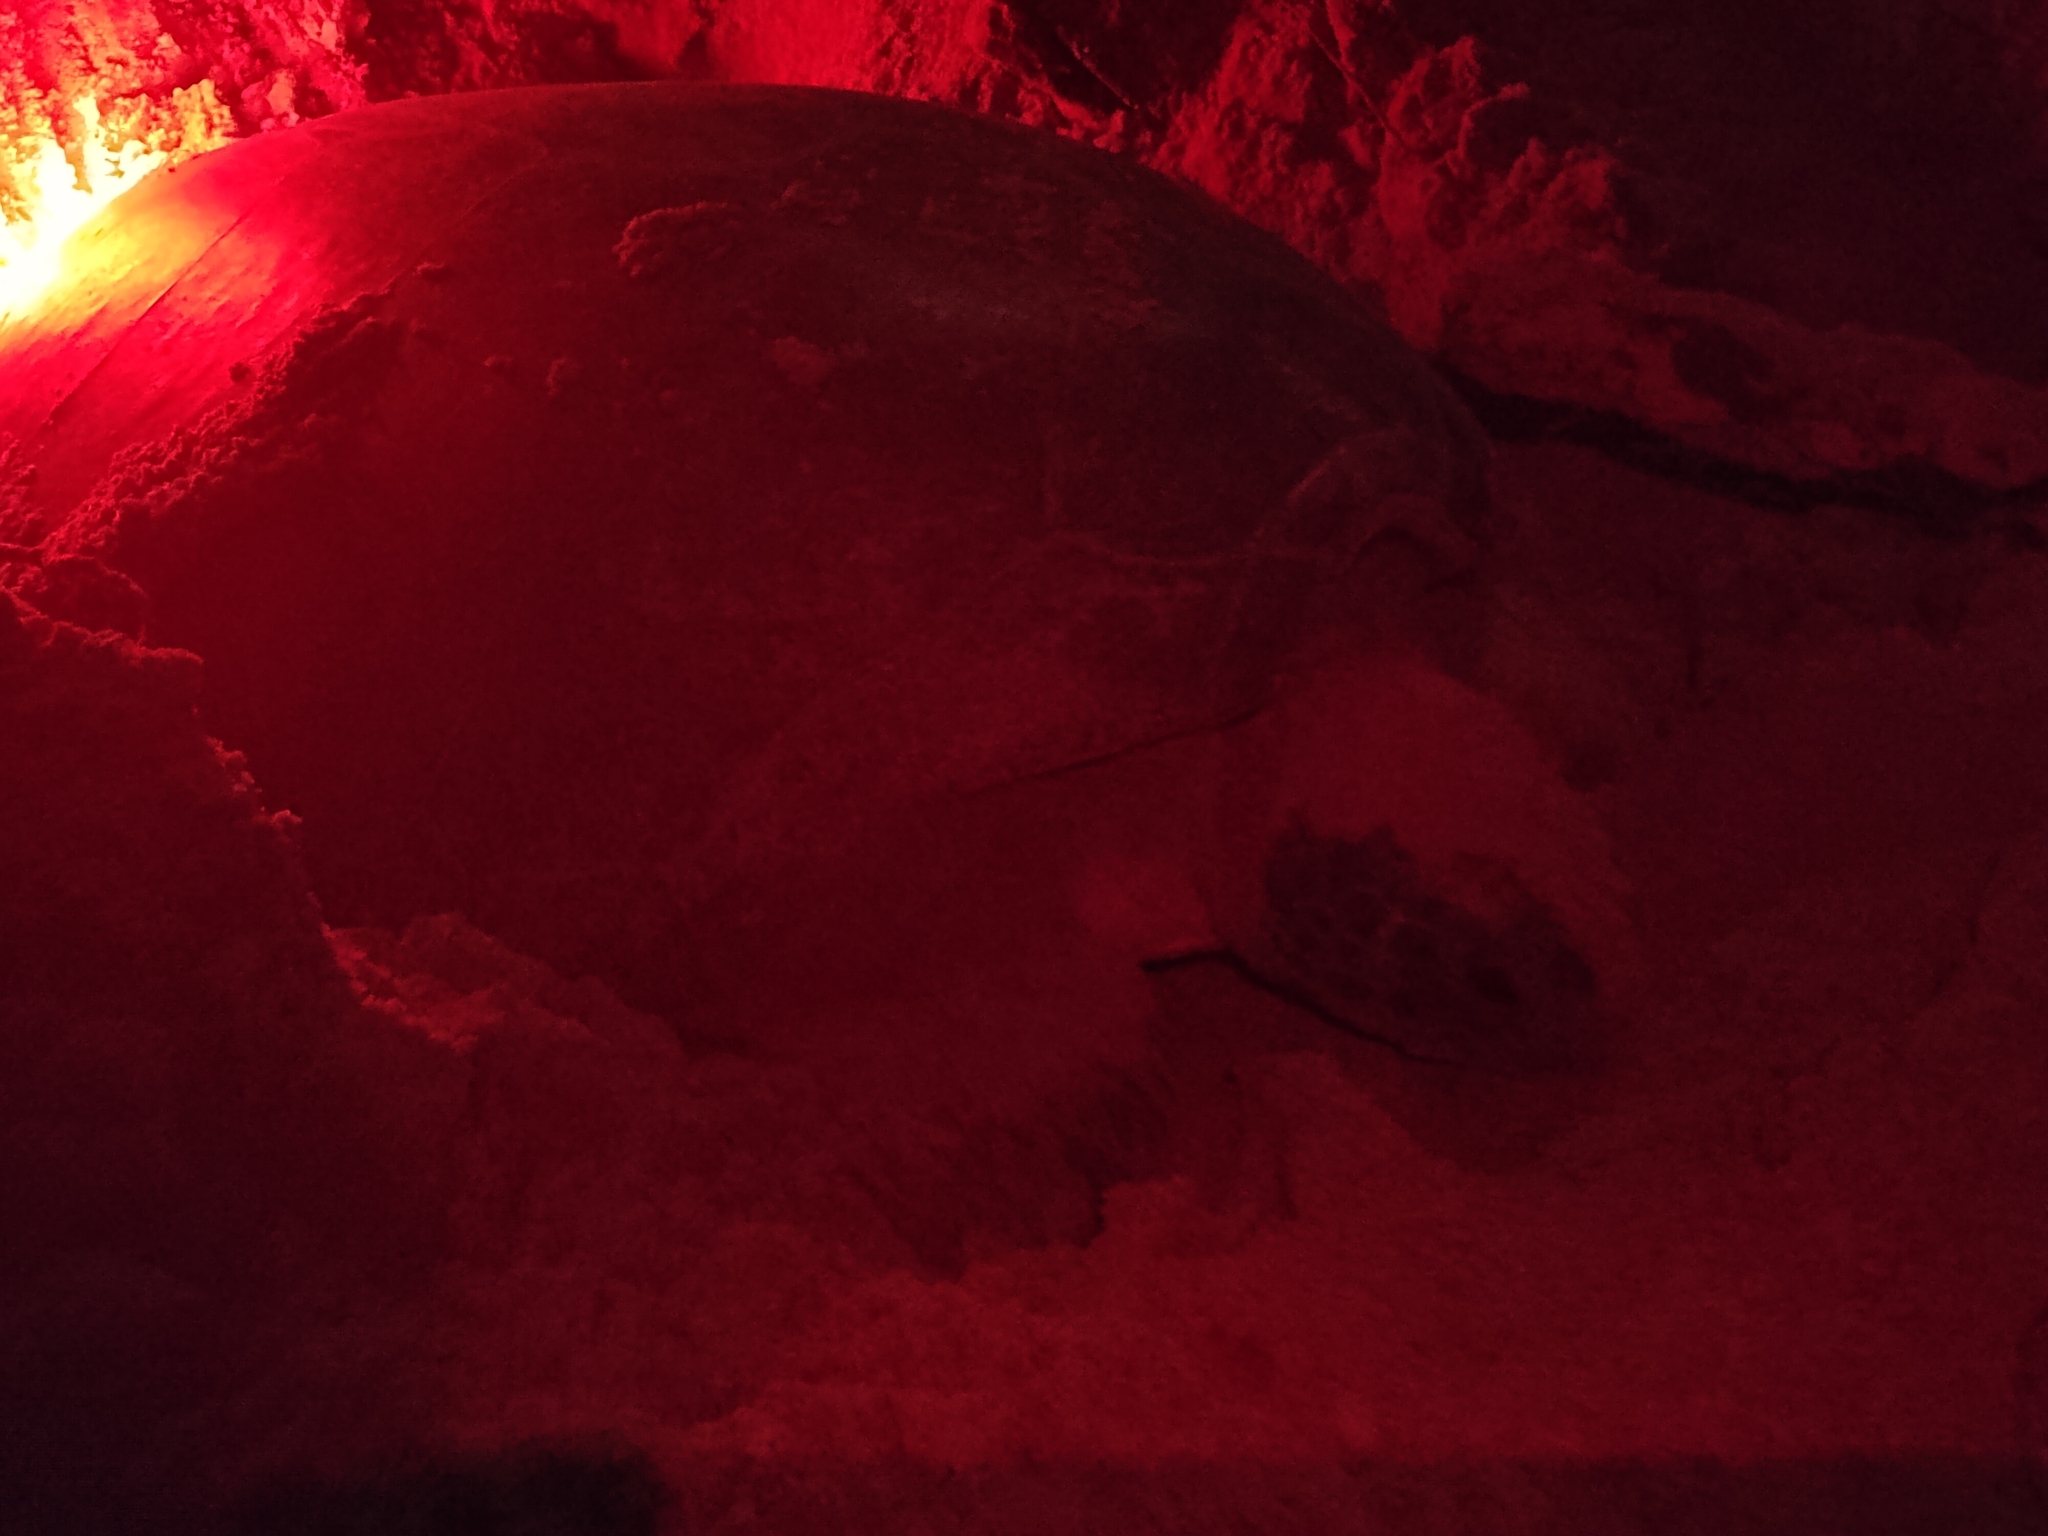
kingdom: Animalia
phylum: Chordata
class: Testudines
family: Cheloniidae
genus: Chelonia
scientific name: Chelonia mydas
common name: Green turtle
